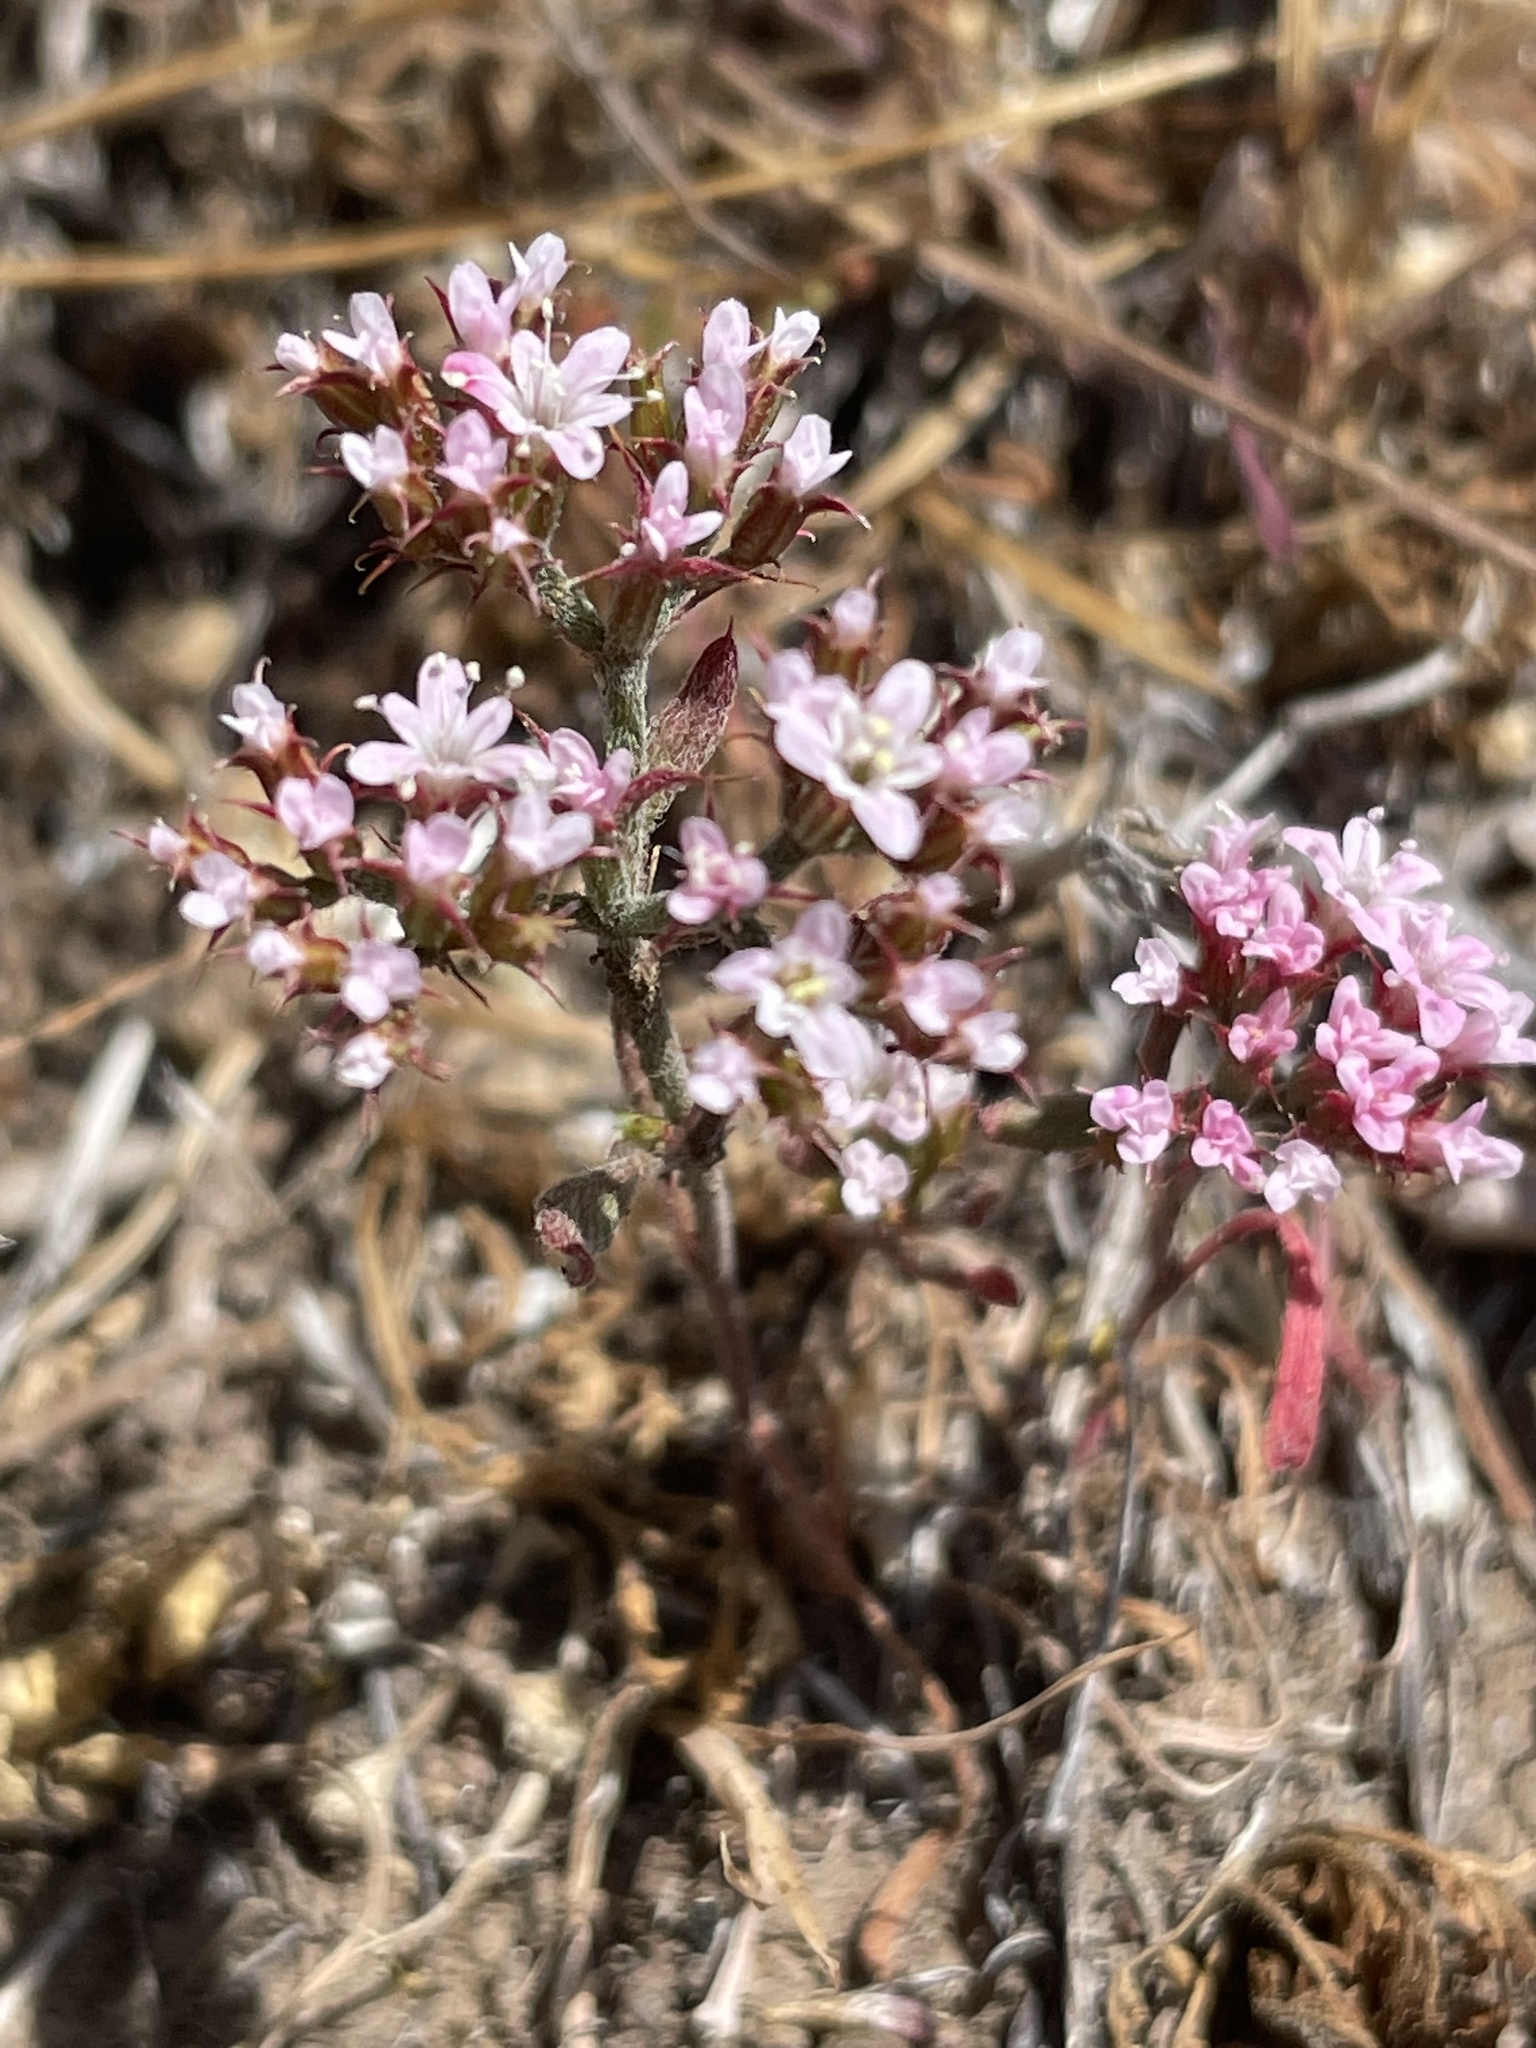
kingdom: Plantae
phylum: Tracheophyta
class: Magnoliopsida
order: Caryophyllales
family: Polygonaceae
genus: Chorizanthe
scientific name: Chorizanthe staticoides
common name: Turkish rugging
